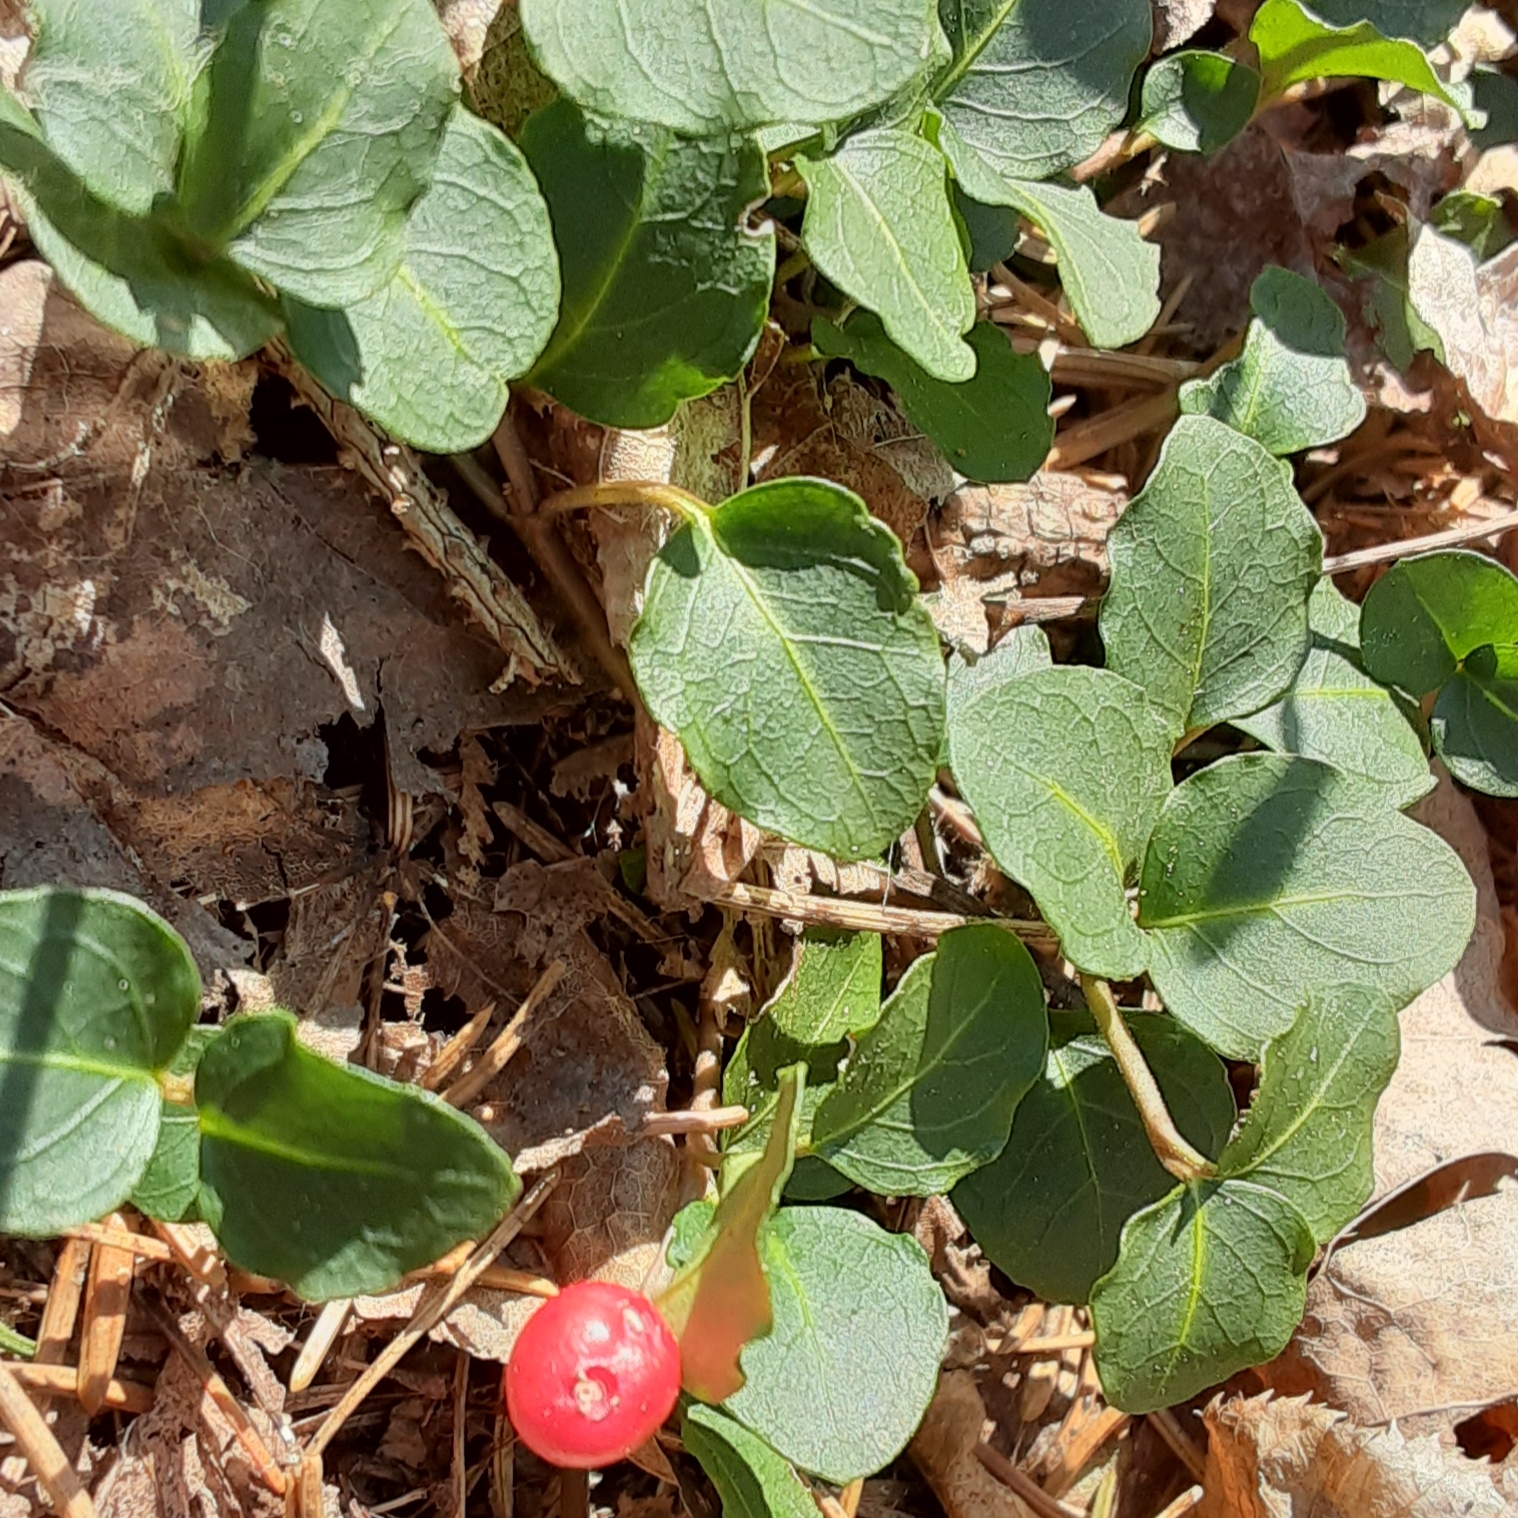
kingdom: Plantae
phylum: Tracheophyta
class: Magnoliopsida
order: Gentianales
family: Rubiaceae
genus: Mitchella
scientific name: Mitchella repens
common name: Partridge-berry
